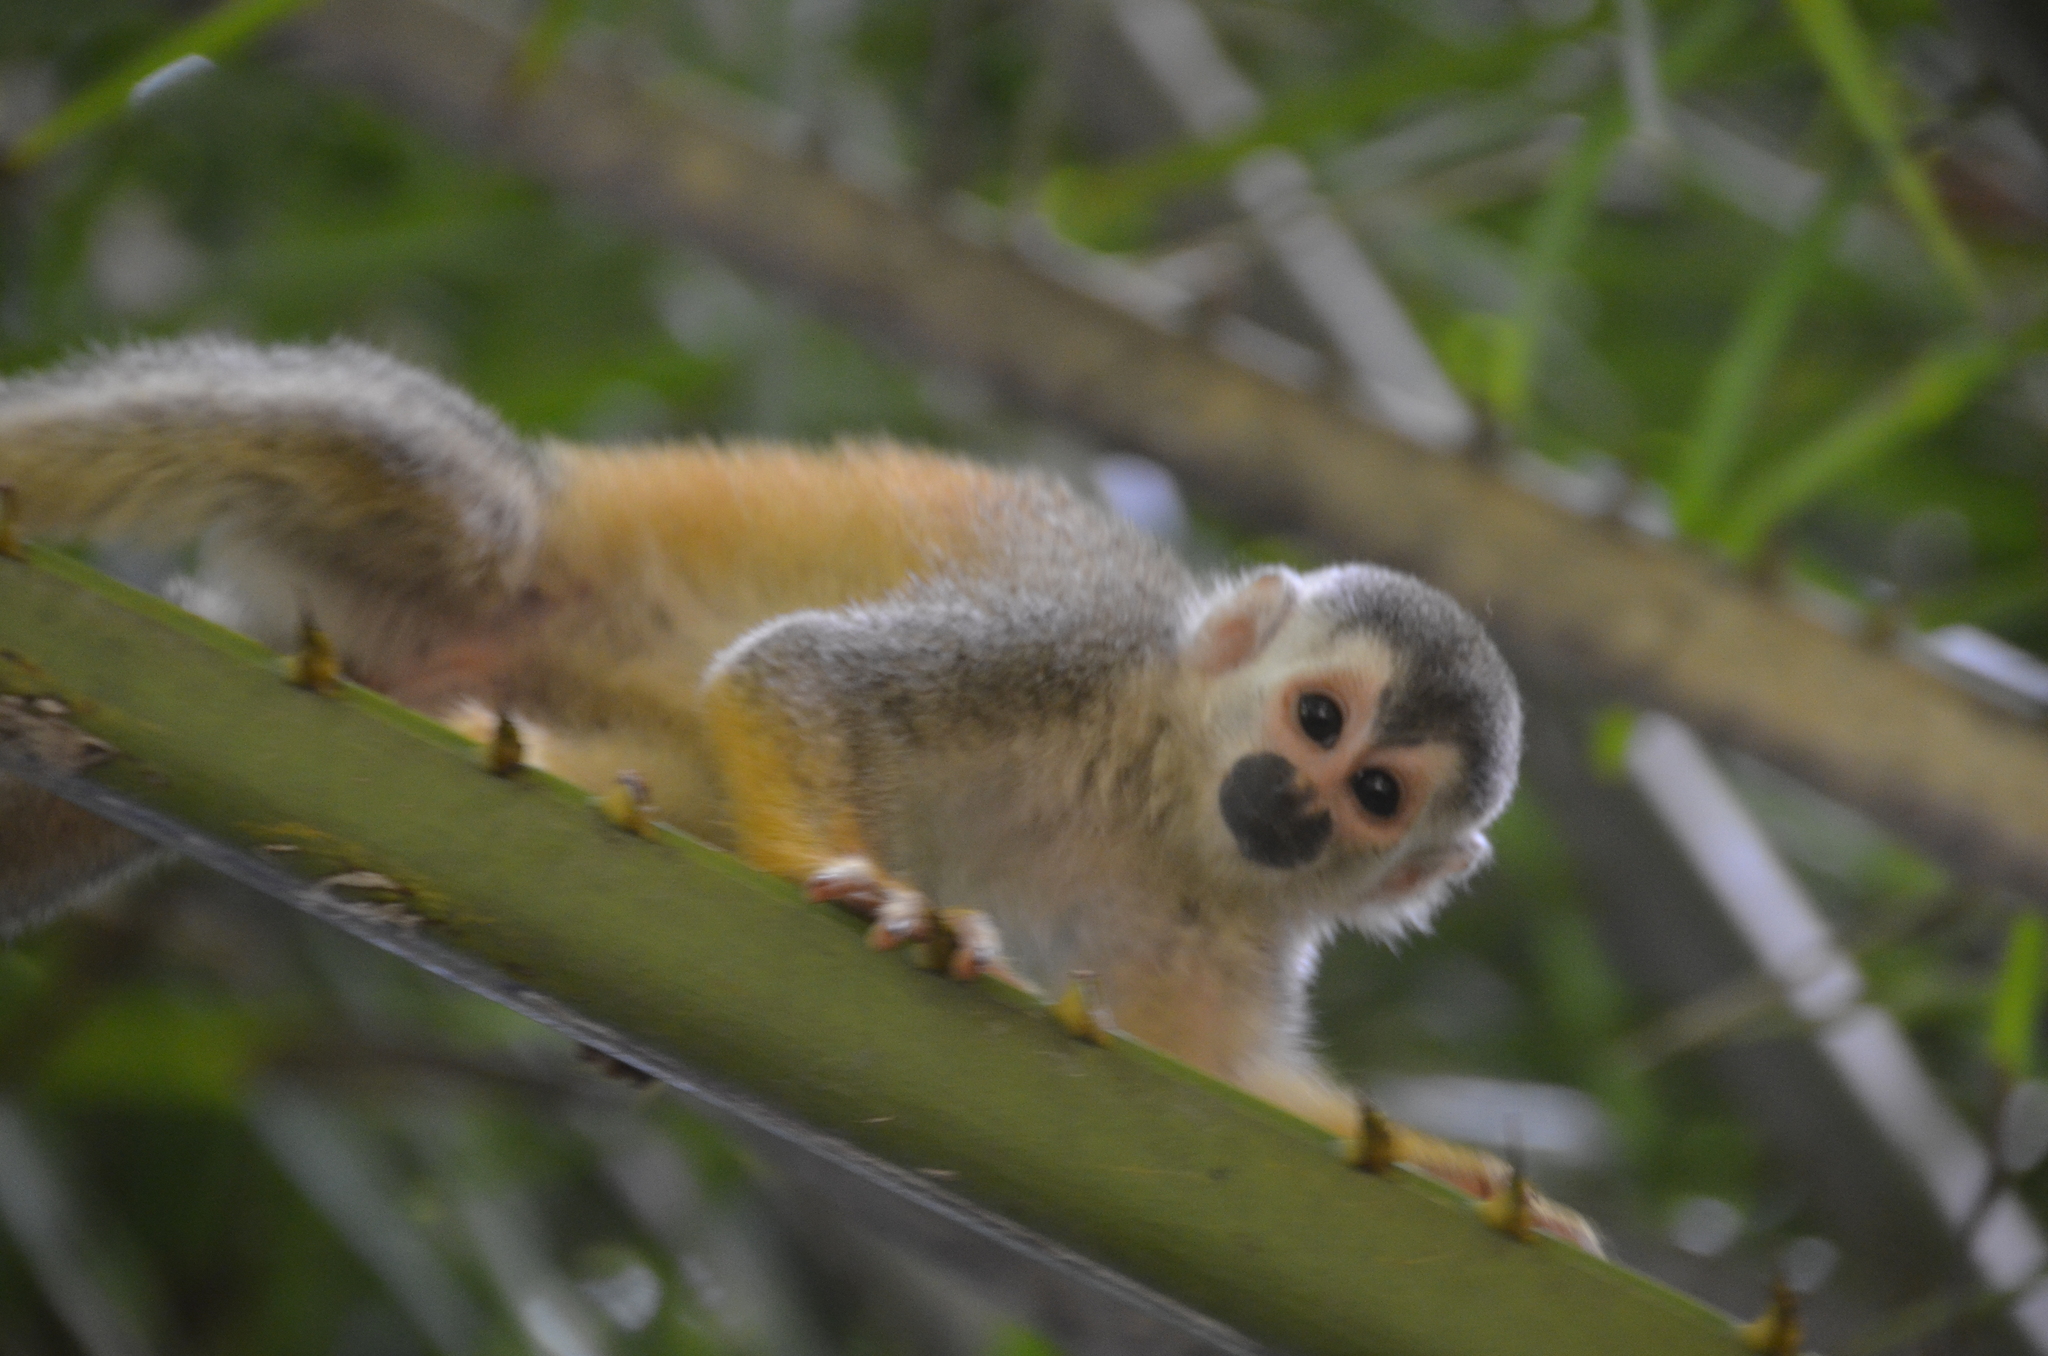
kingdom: Animalia
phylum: Chordata
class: Mammalia
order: Primates
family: Cebidae
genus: Saimiri
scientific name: Saimiri oerstedii
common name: Central american squirrel monkey
